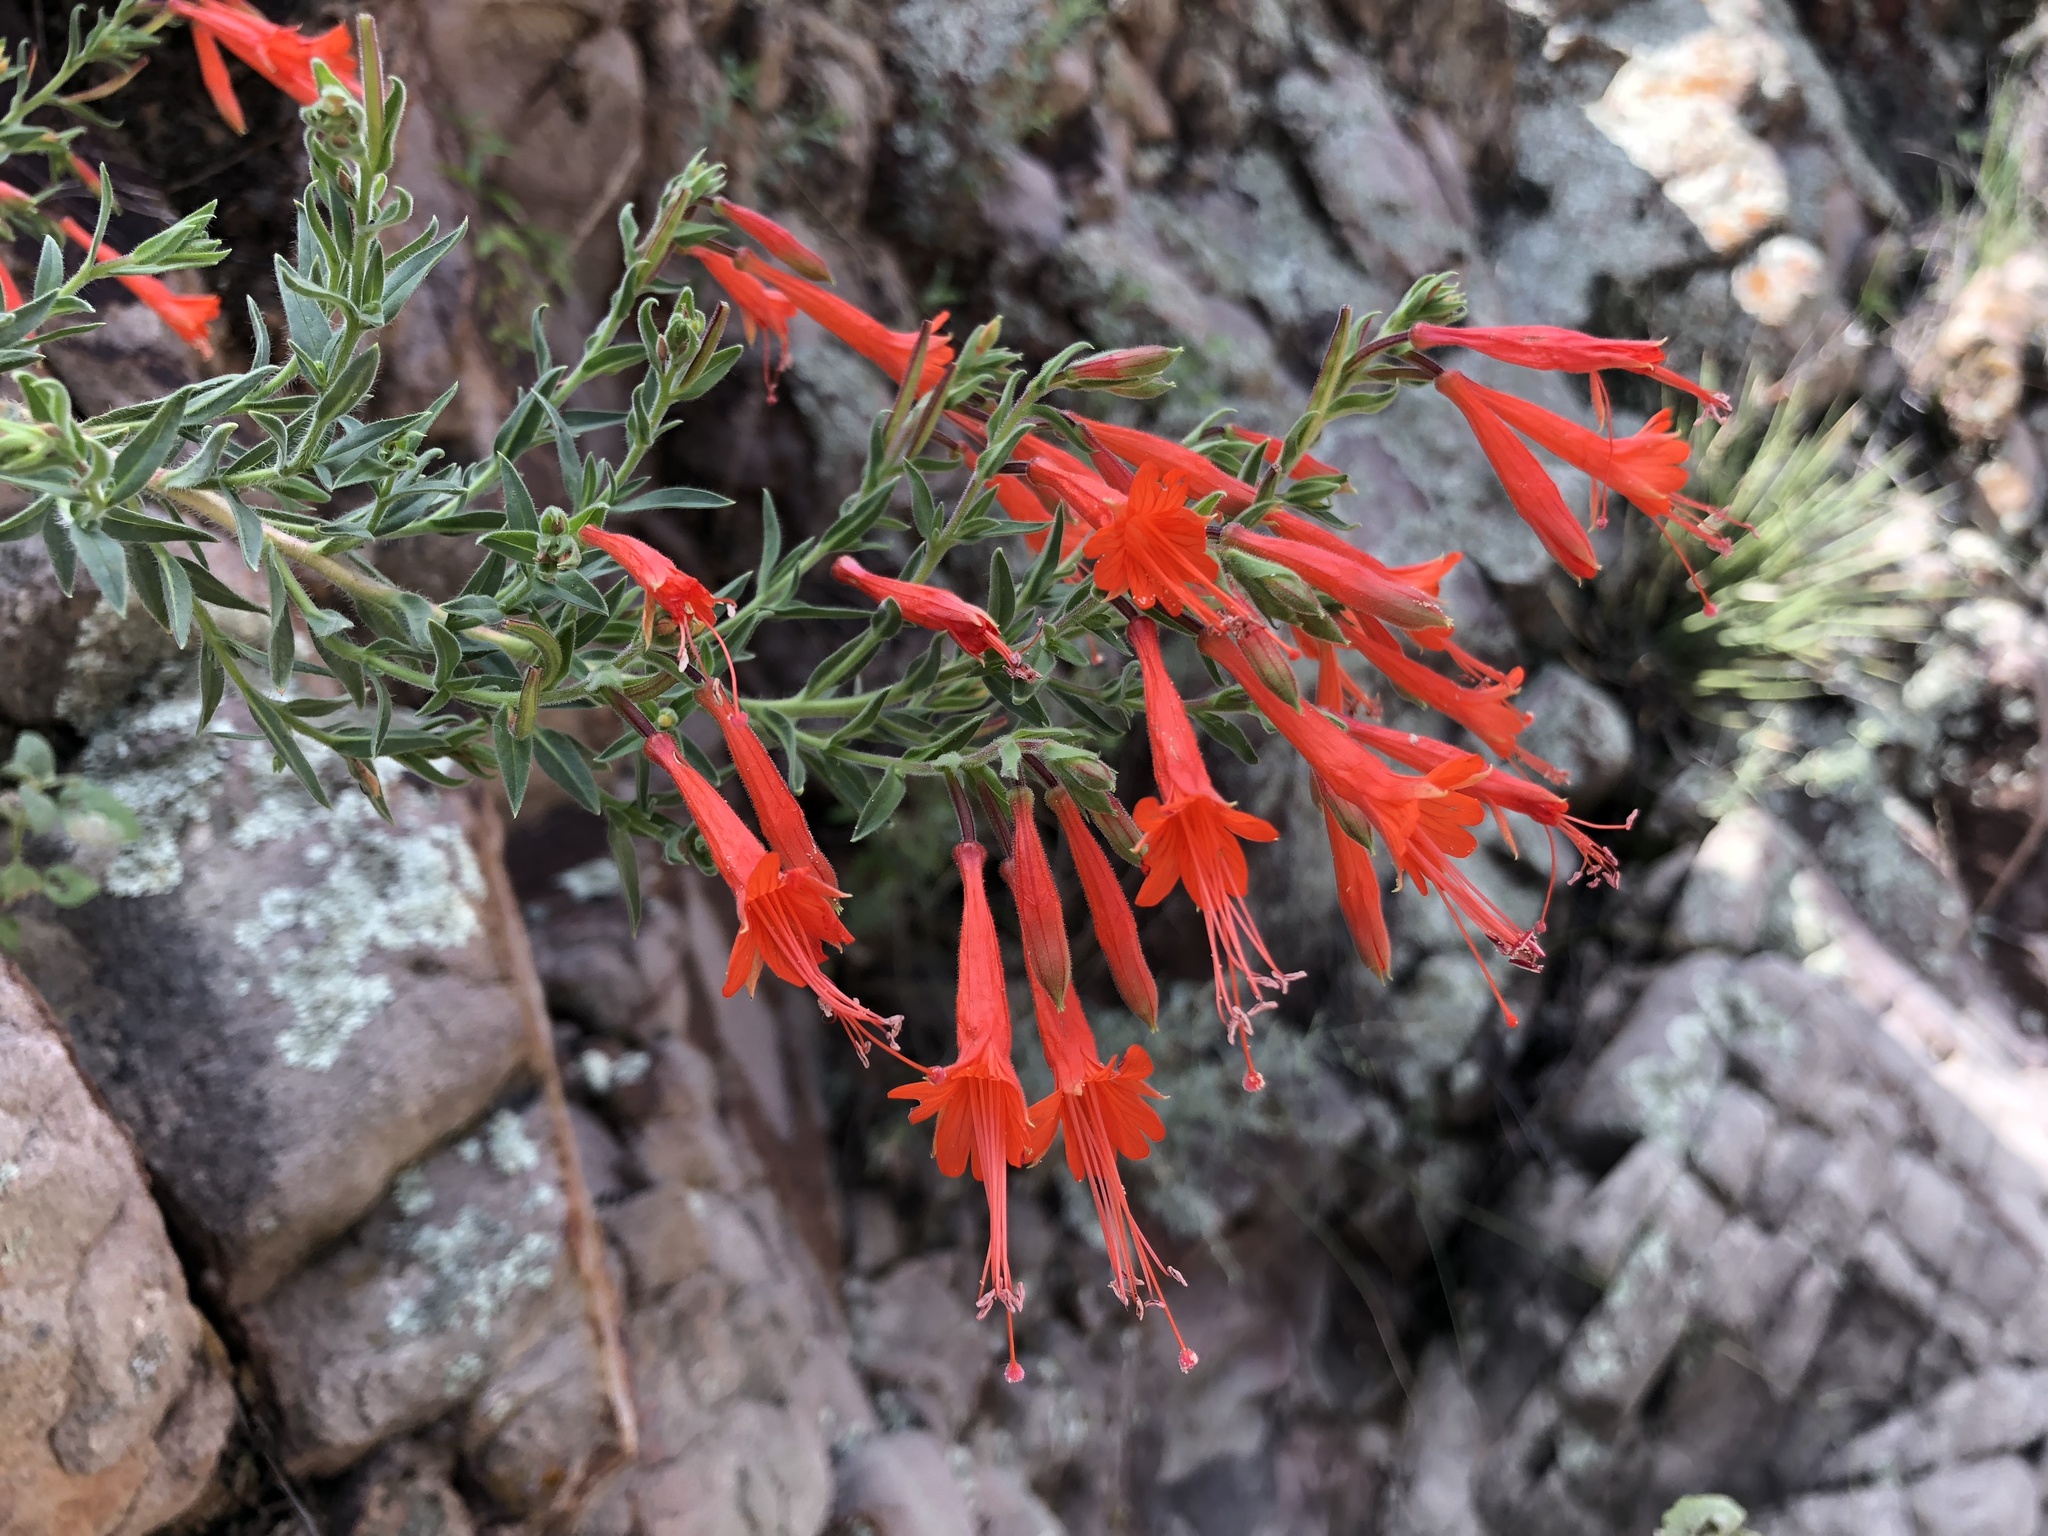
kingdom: Plantae
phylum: Tracheophyta
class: Magnoliopsida
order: Myrtales
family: Onagraceae
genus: Epilobium
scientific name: Epilobium canum
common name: California-fuchsia
